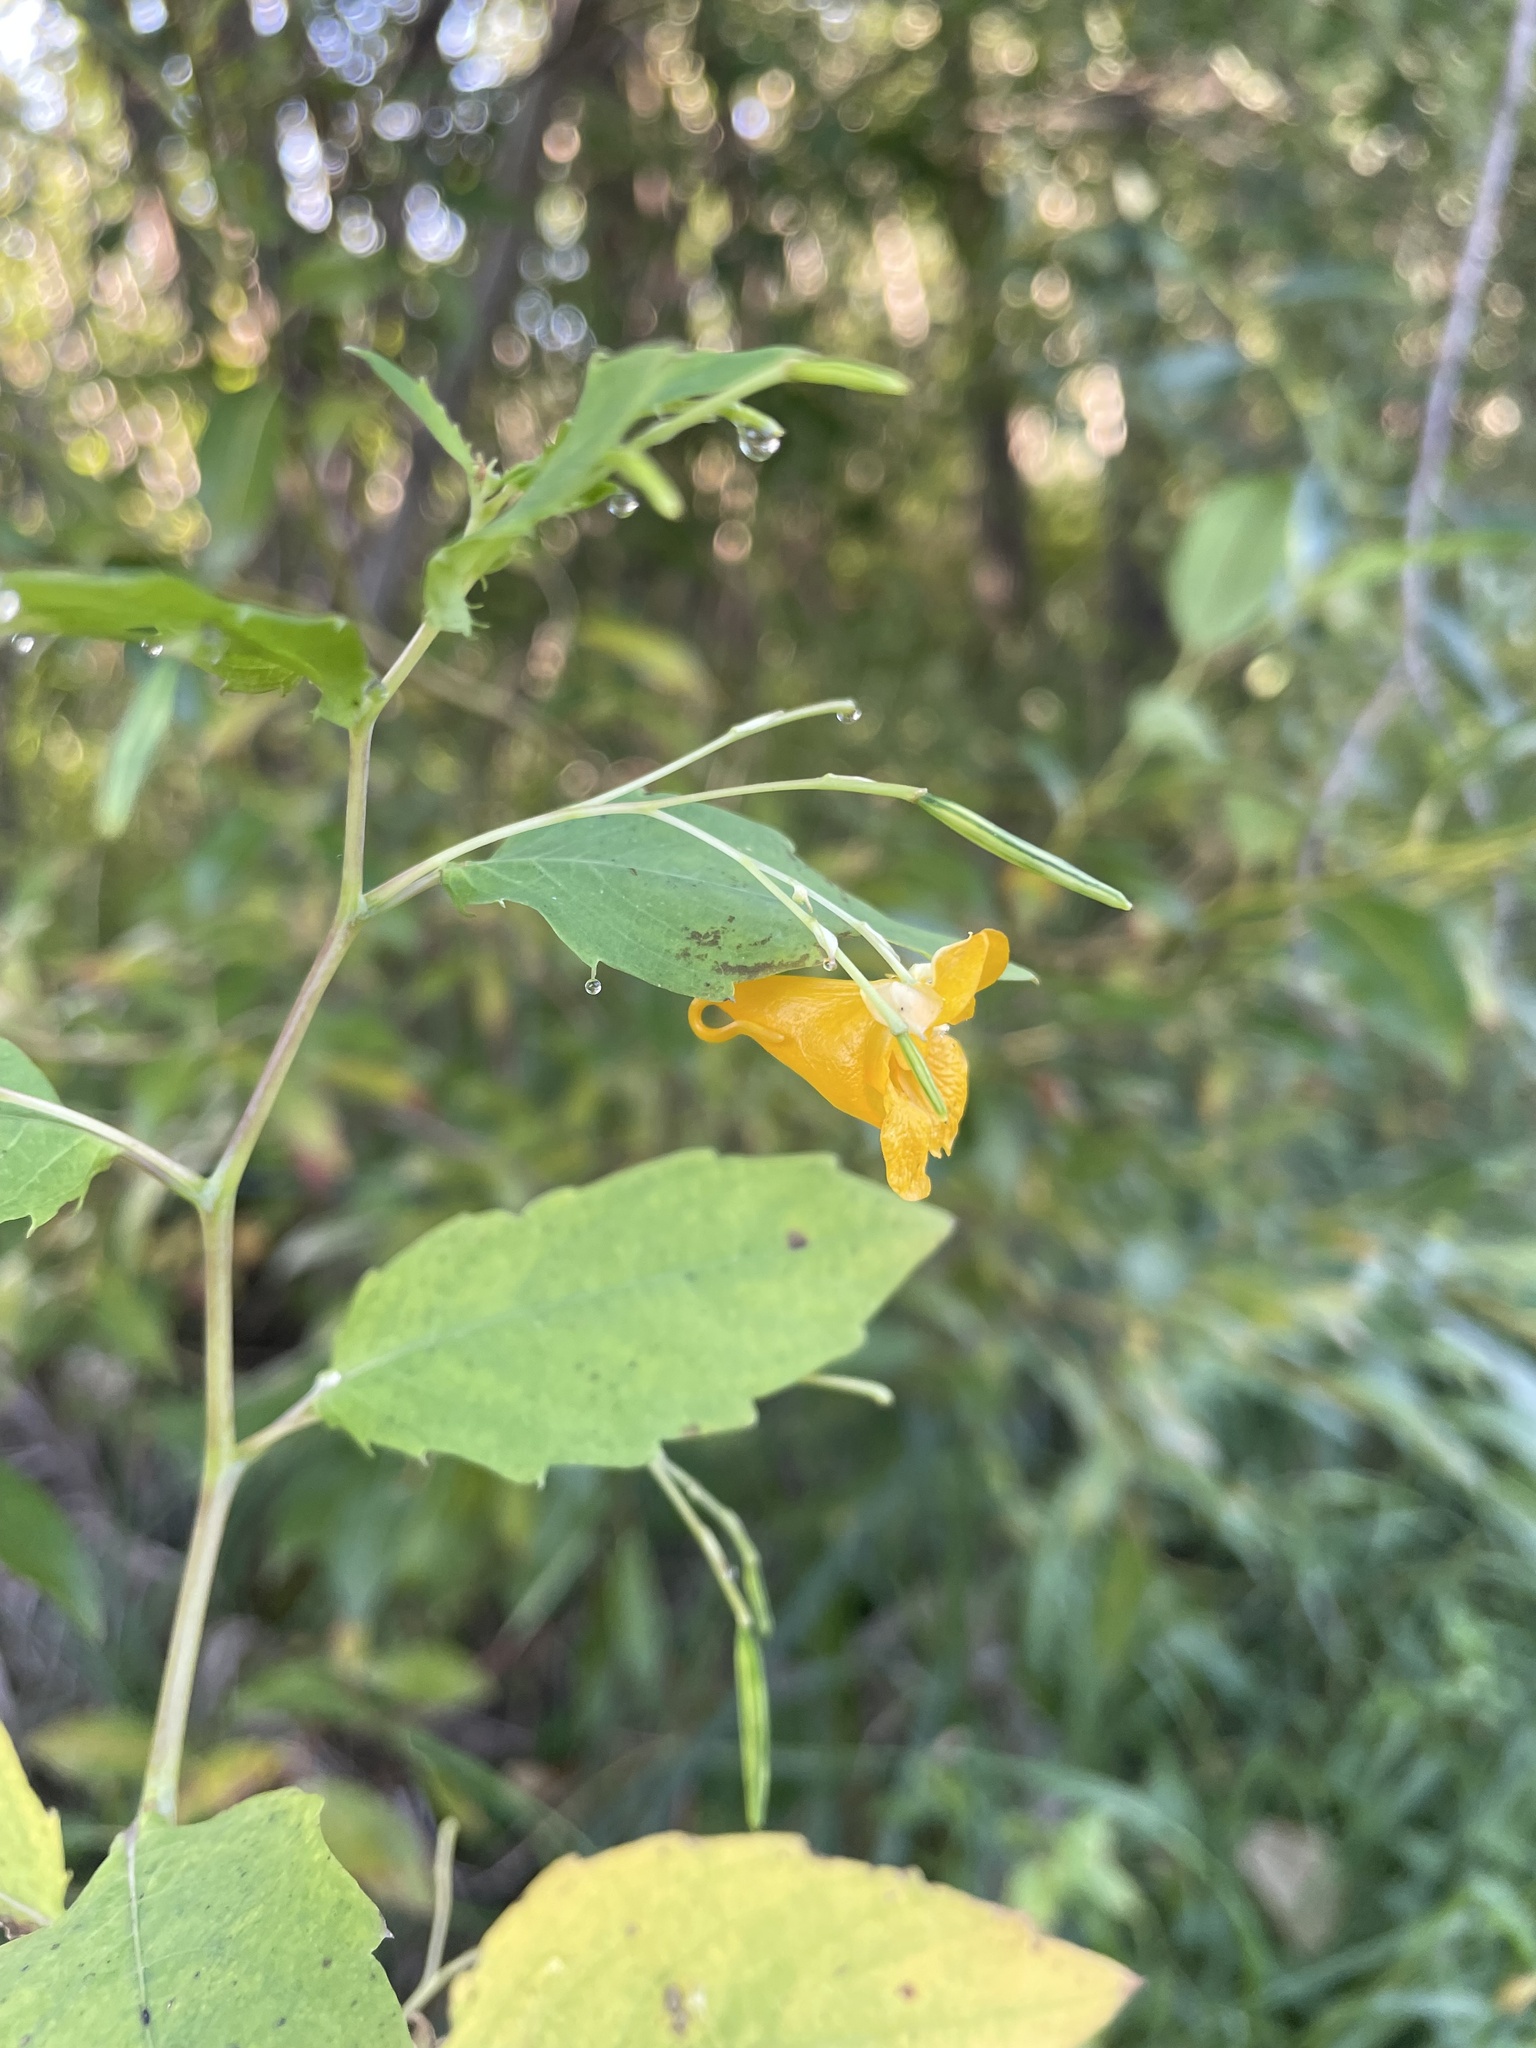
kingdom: Plantae
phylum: Tracheophyta
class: Magnoliopsida
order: Ericales
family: Balsaminaceae
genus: Impatiens
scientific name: Impatiens capensis
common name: Orange balsam
